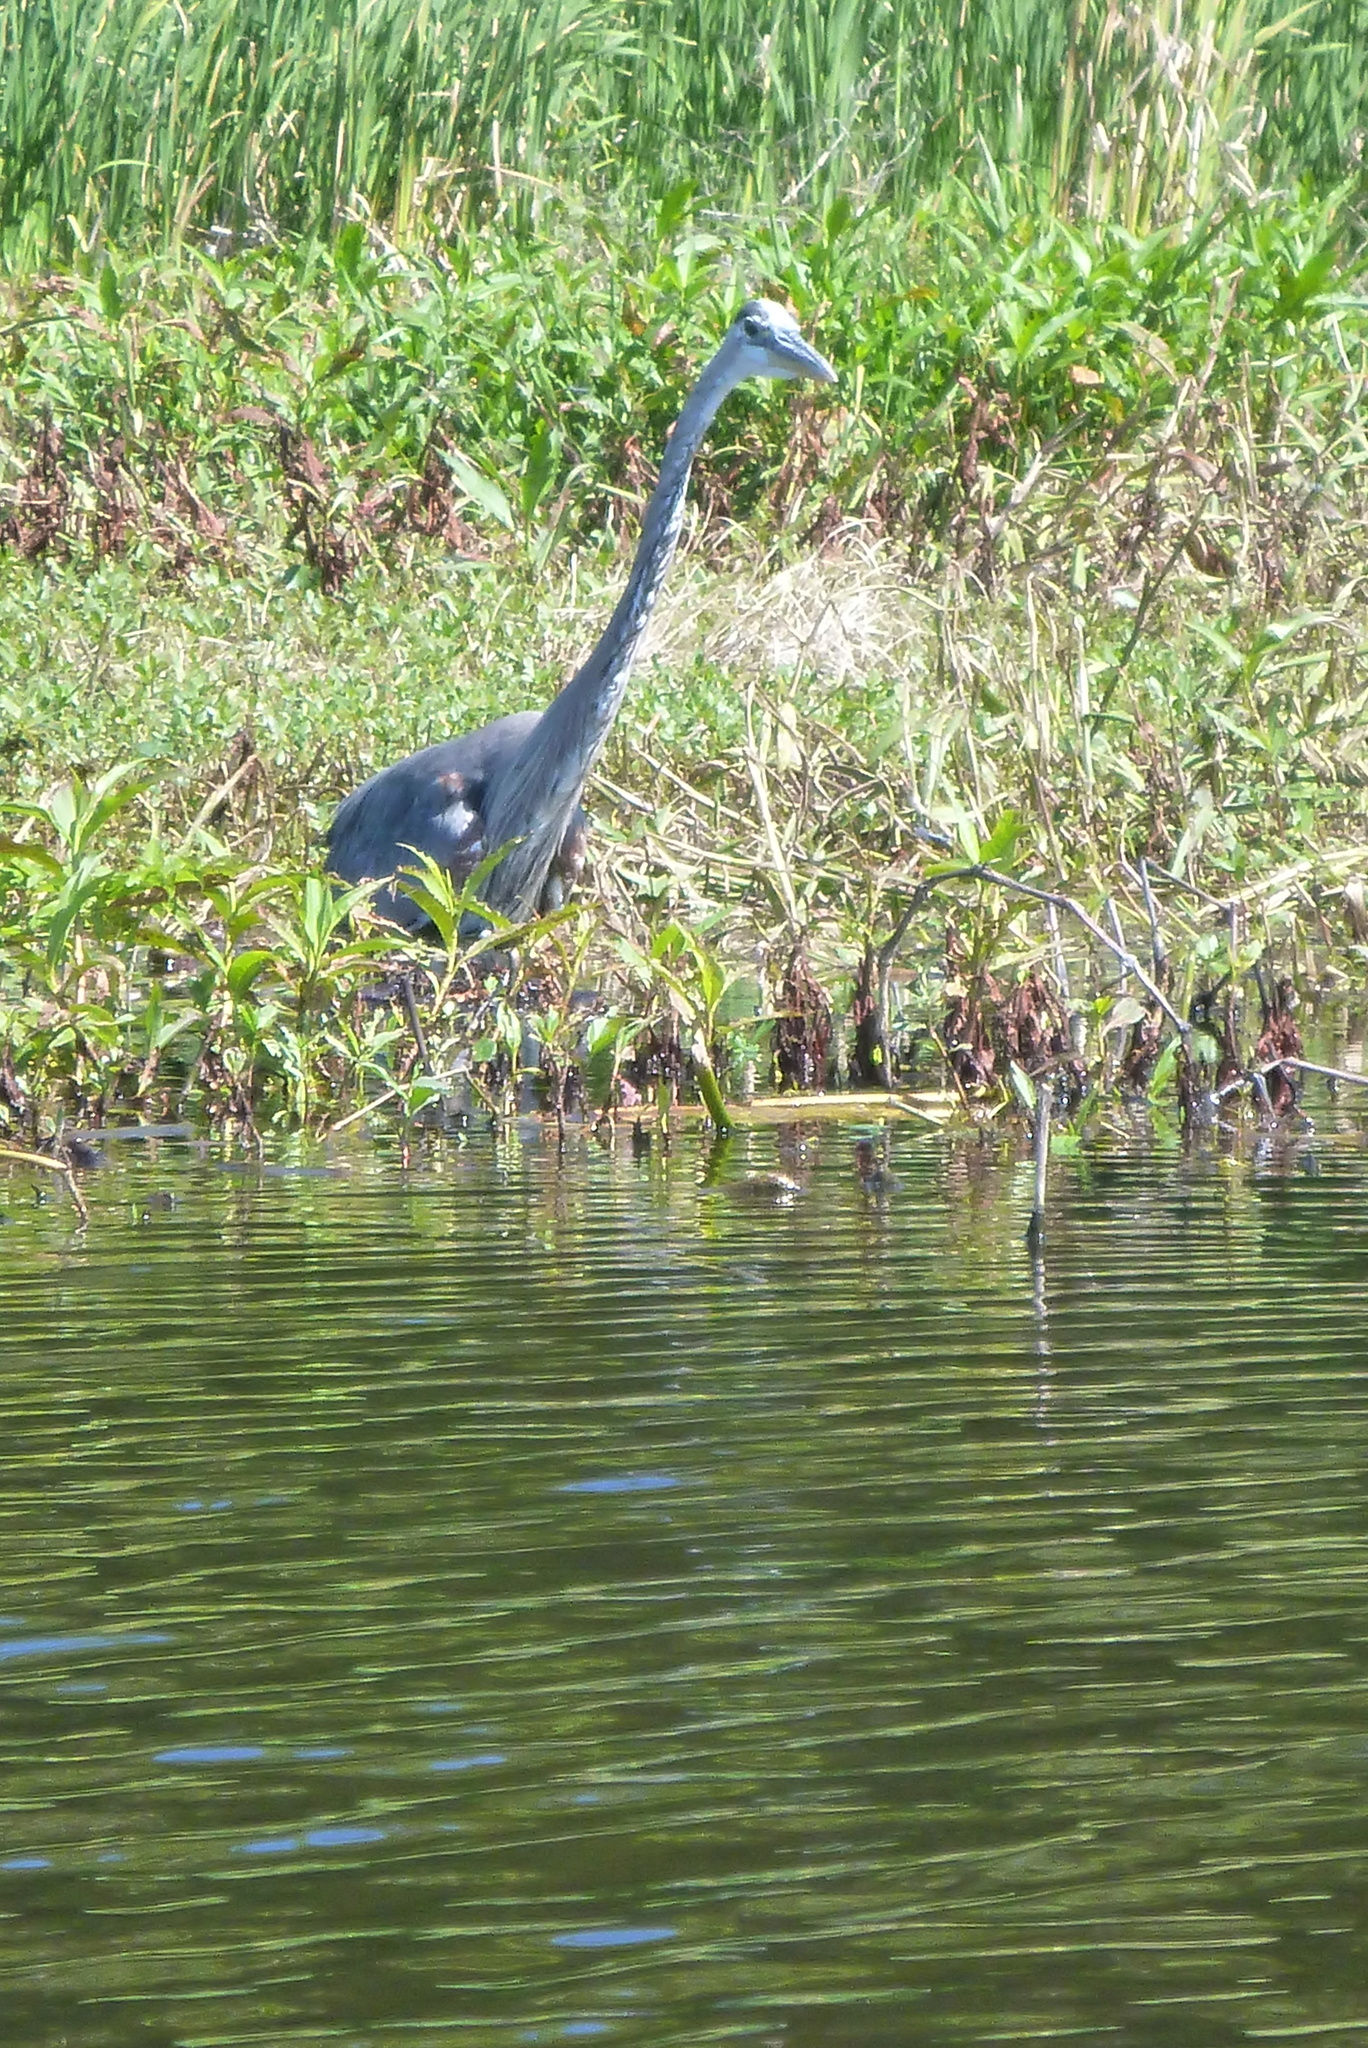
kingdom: Animalia
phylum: Chordata
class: Aves
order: Pelecaniformes
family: Ardeidae
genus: Ardea
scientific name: Ardea herodias
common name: Great blue heron
